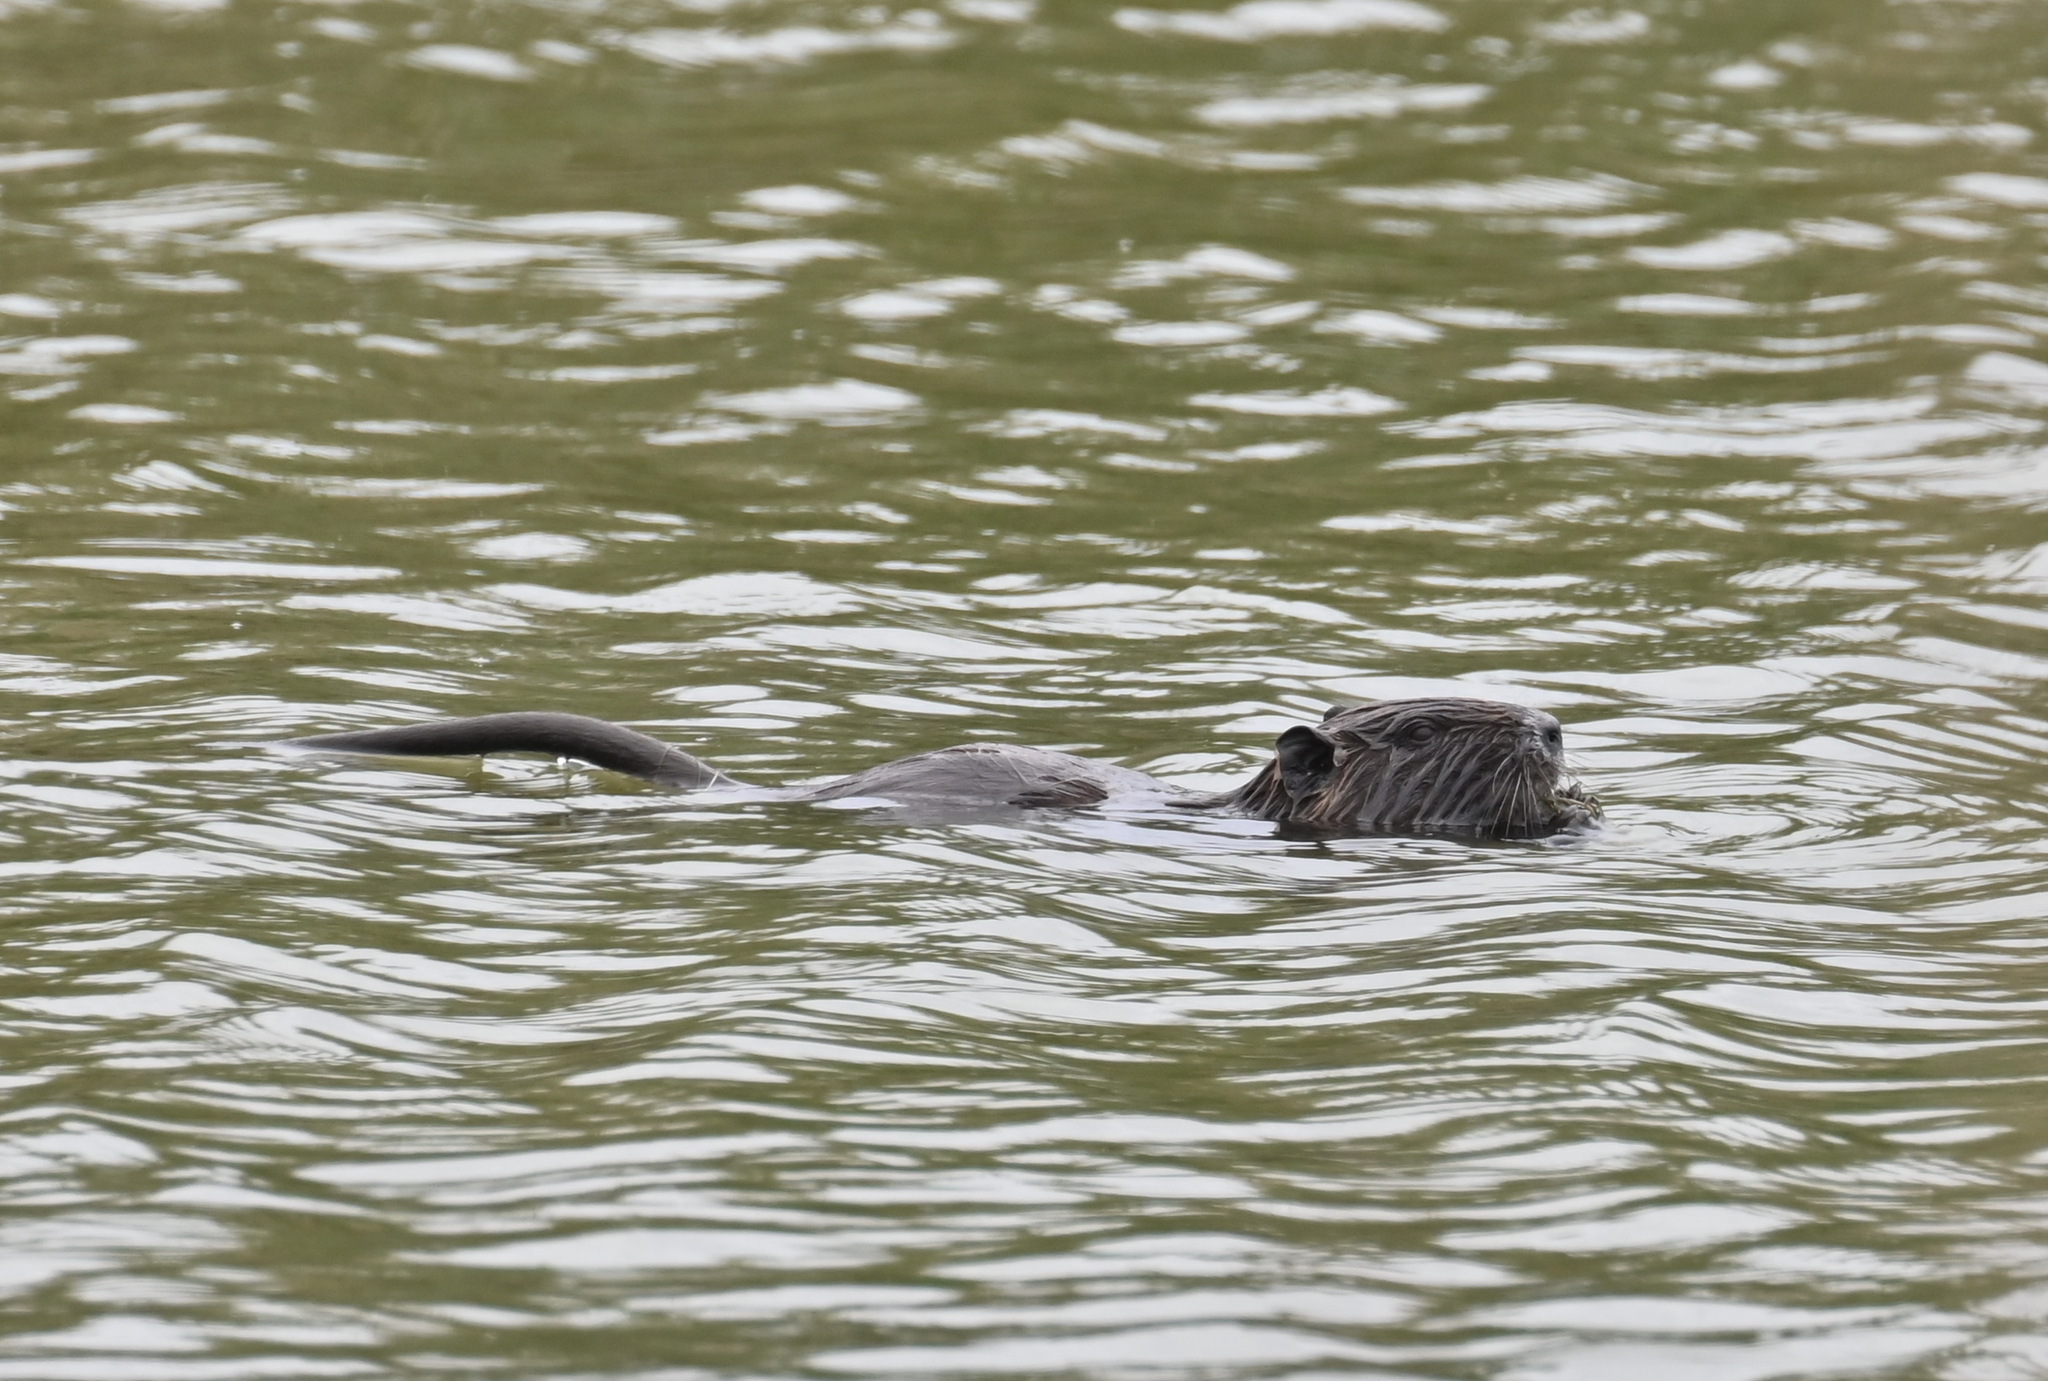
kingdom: Animalia
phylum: Chordata
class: Mammalia
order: Rodentia
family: Myocastoridae
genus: Myocastor
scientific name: Myocastor coypus
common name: Coypu
